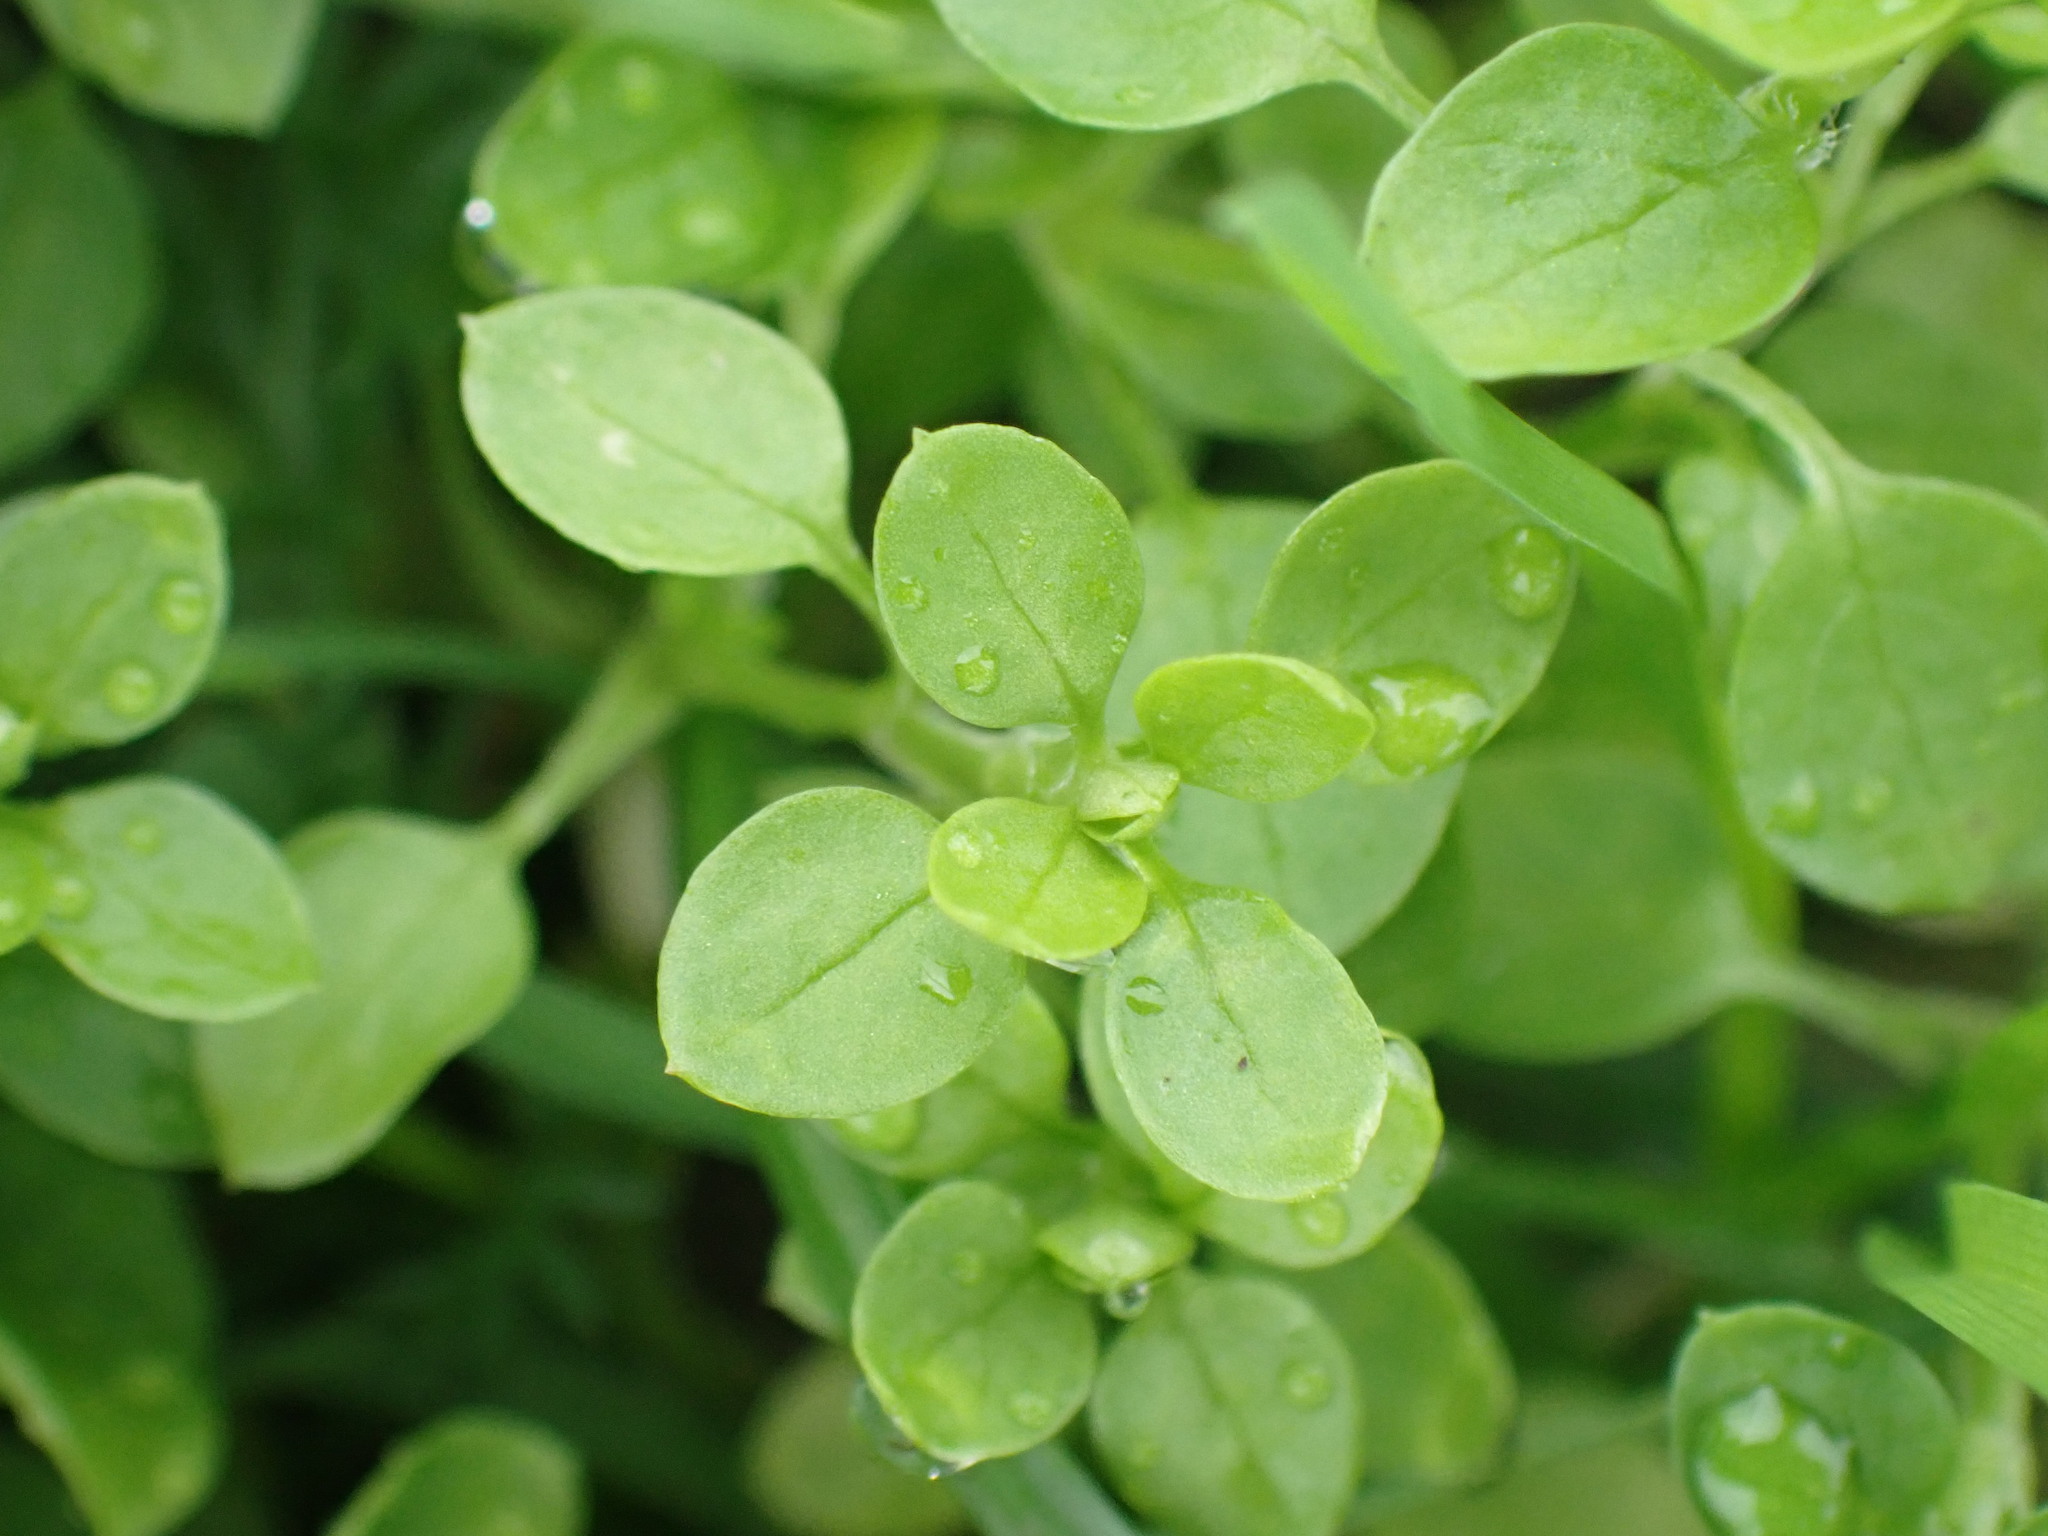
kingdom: Plantae
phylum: Tracheophyta
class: Magnoliopsida
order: Caryophyllales
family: Caryophyllaceae
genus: Stellaria
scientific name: Stellaria media
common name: Common chickweed
